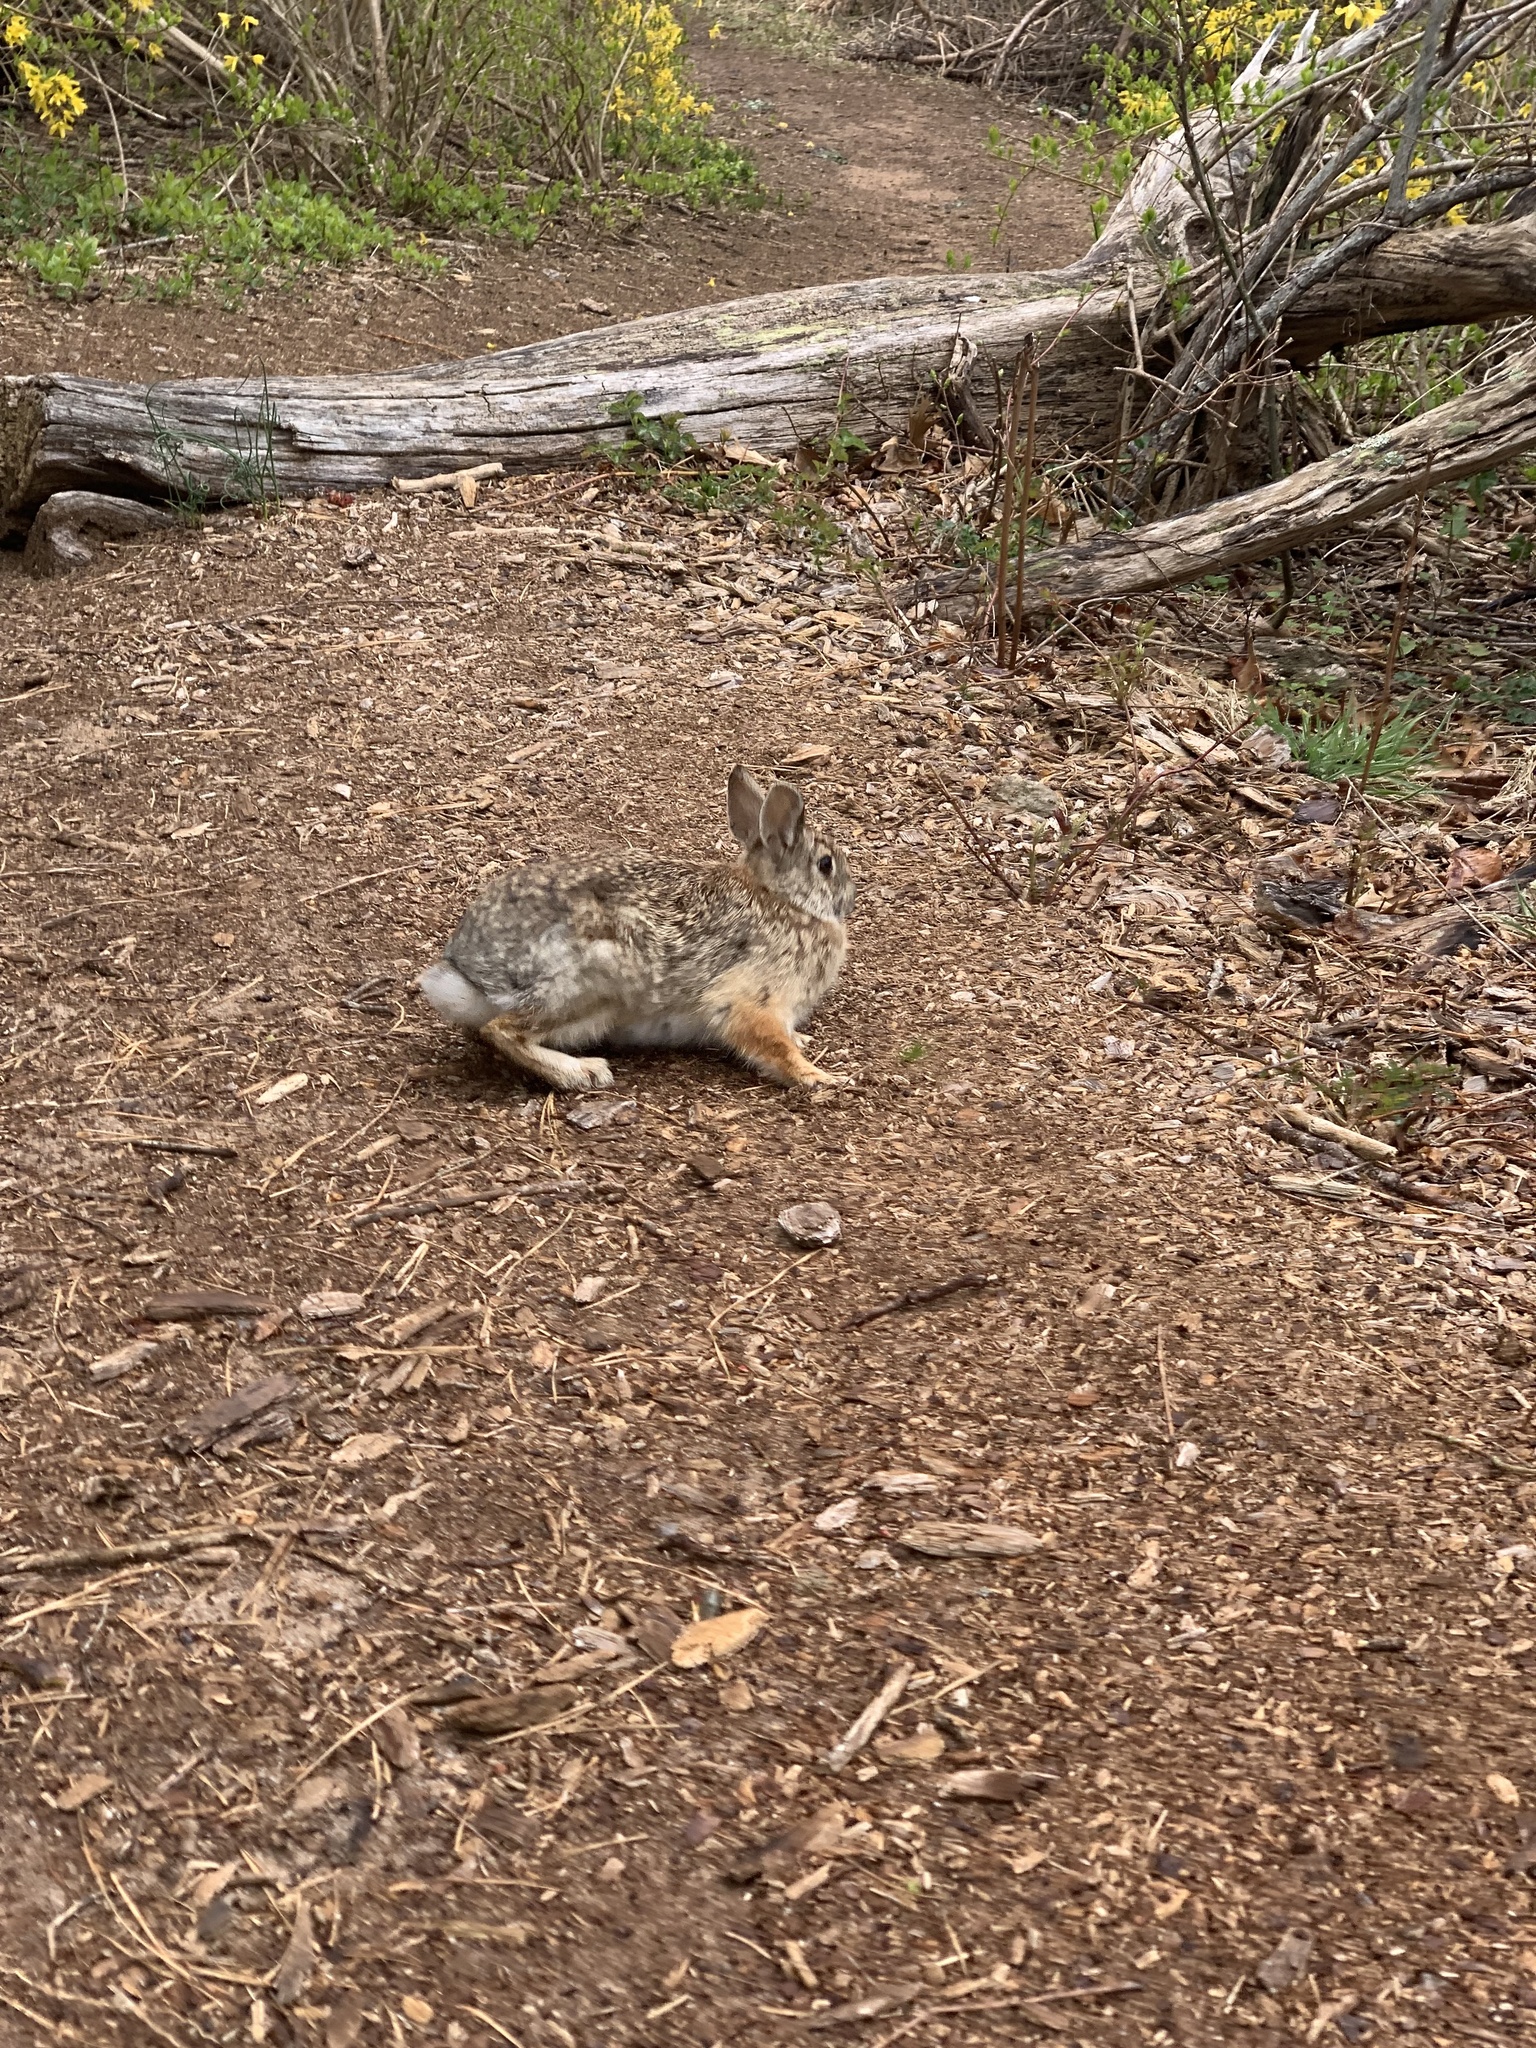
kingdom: Animalia
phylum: Chordata
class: Mammalia
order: Lagomorpha
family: Leporidae
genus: Sylvilagus
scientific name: Sylvilagus floridanus
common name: Eastern cottontail
